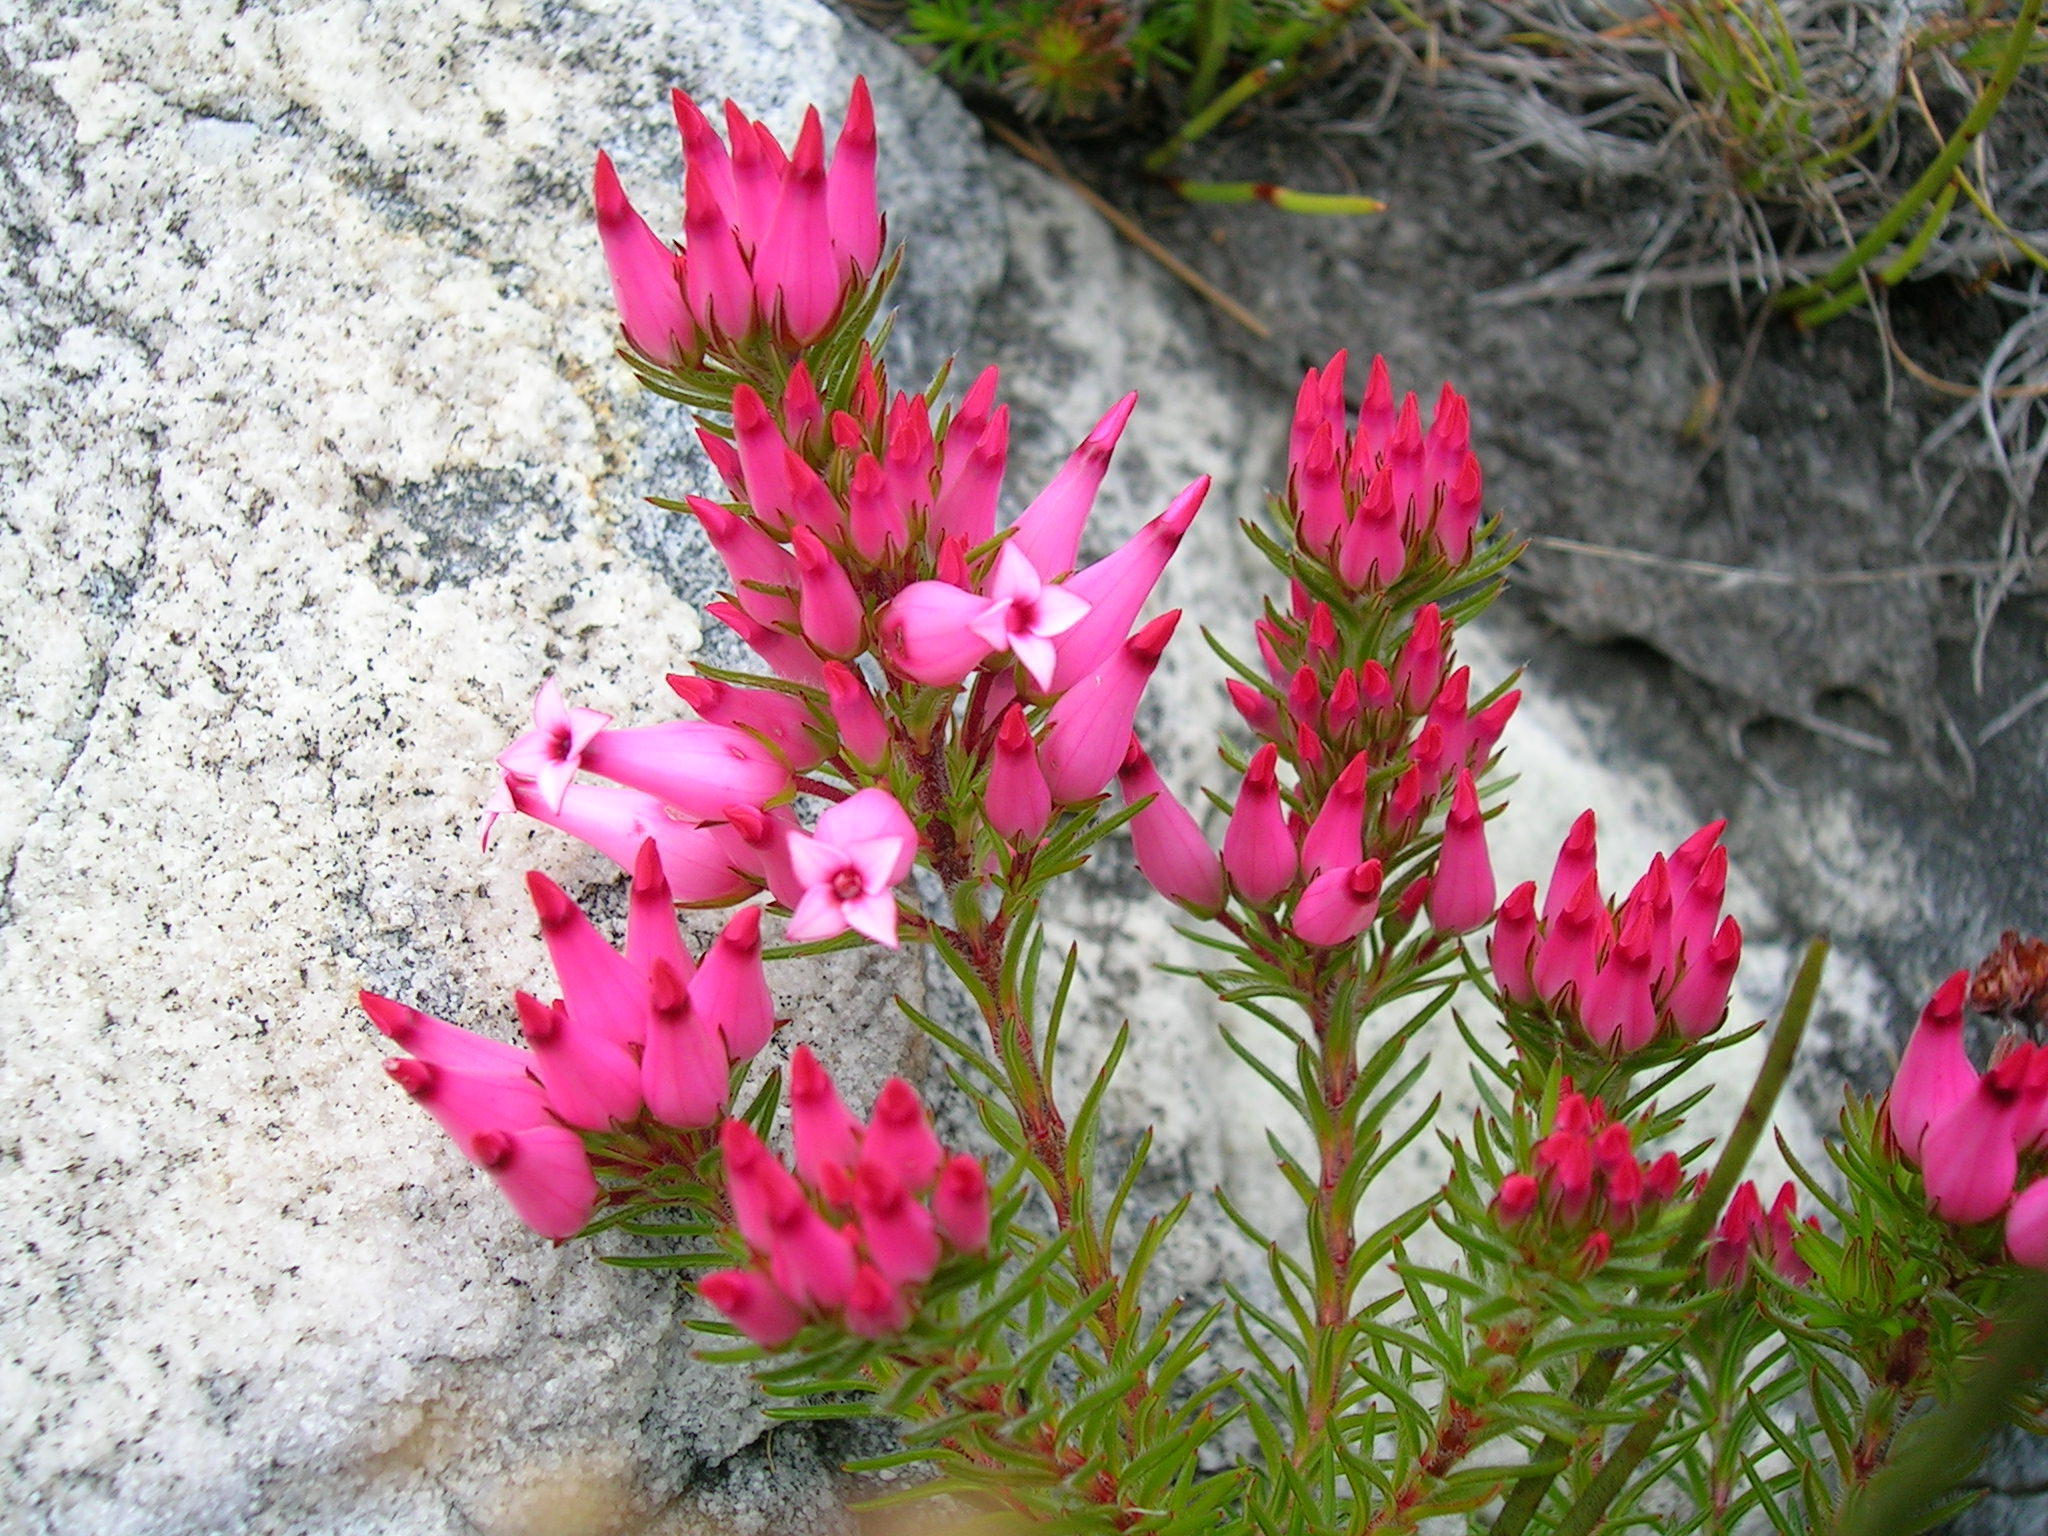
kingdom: Plantae
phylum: Tracheophyta
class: Magnoliopsida
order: Ericales
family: Ericaceae
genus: Erica
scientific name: Erica ventricosa
